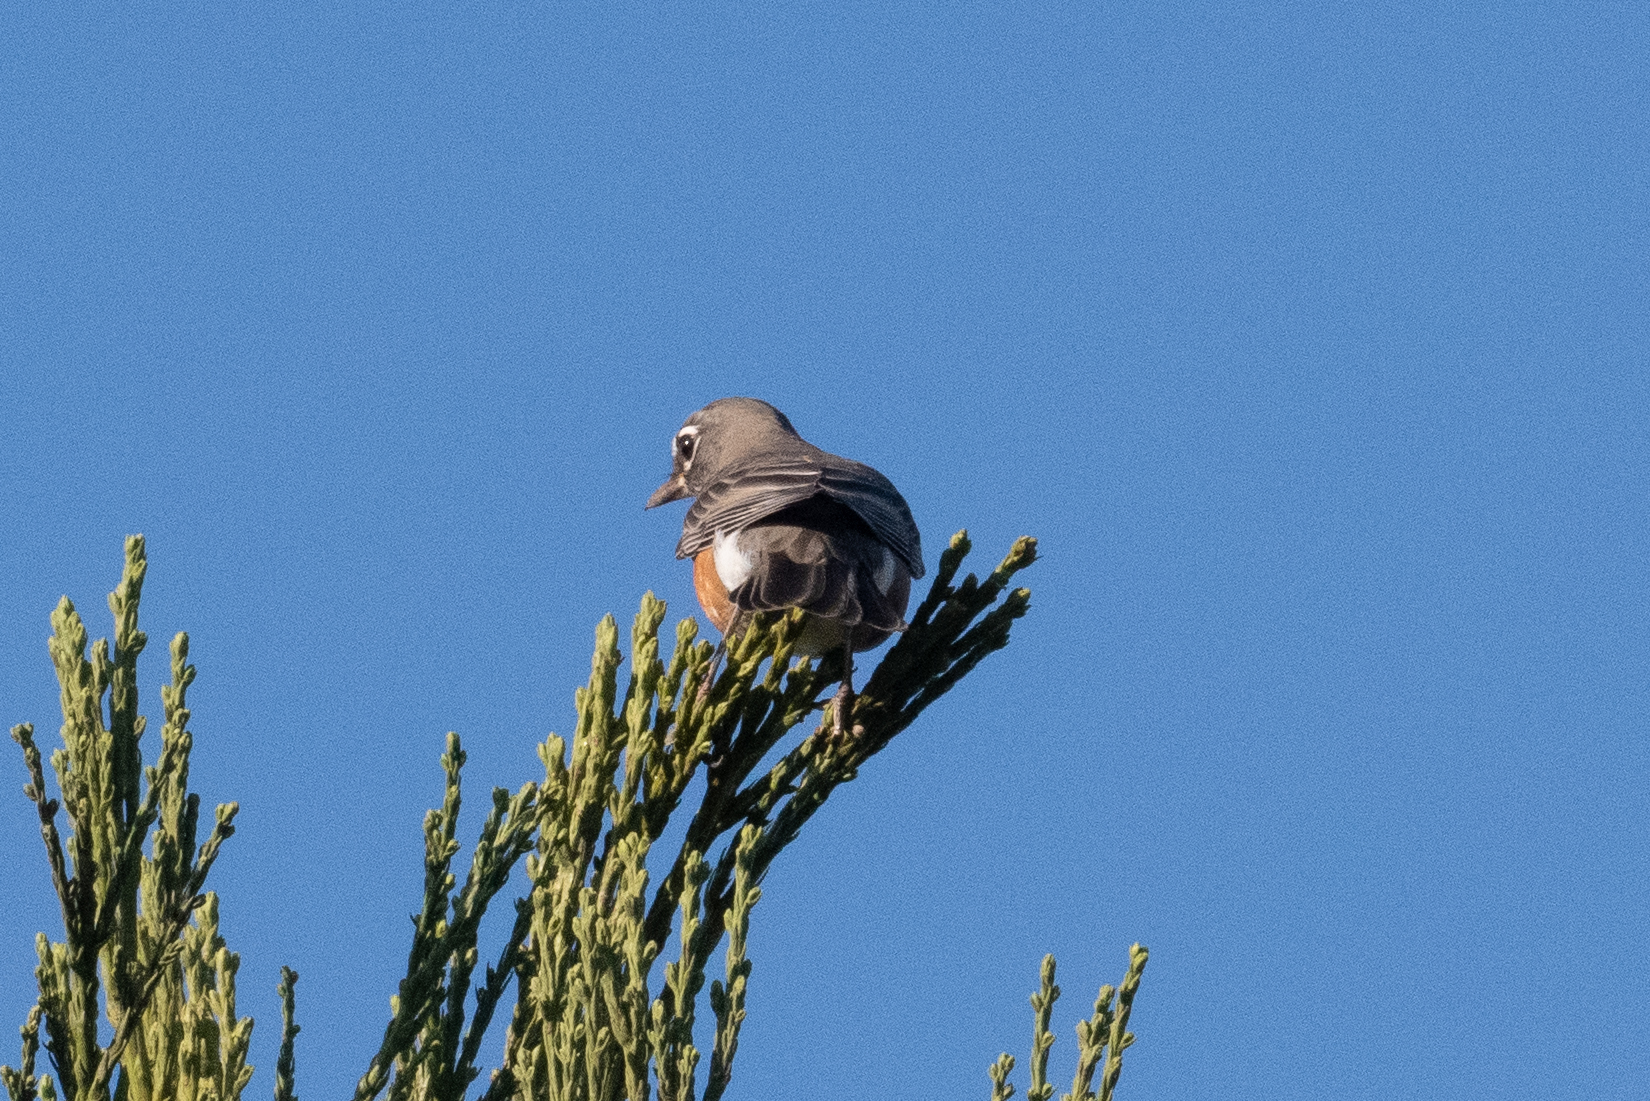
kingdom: Animalia
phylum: Chordata
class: Aves
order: Passeriformes
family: Turdidae
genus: Turdus
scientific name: Turdus migratorius
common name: American robin
